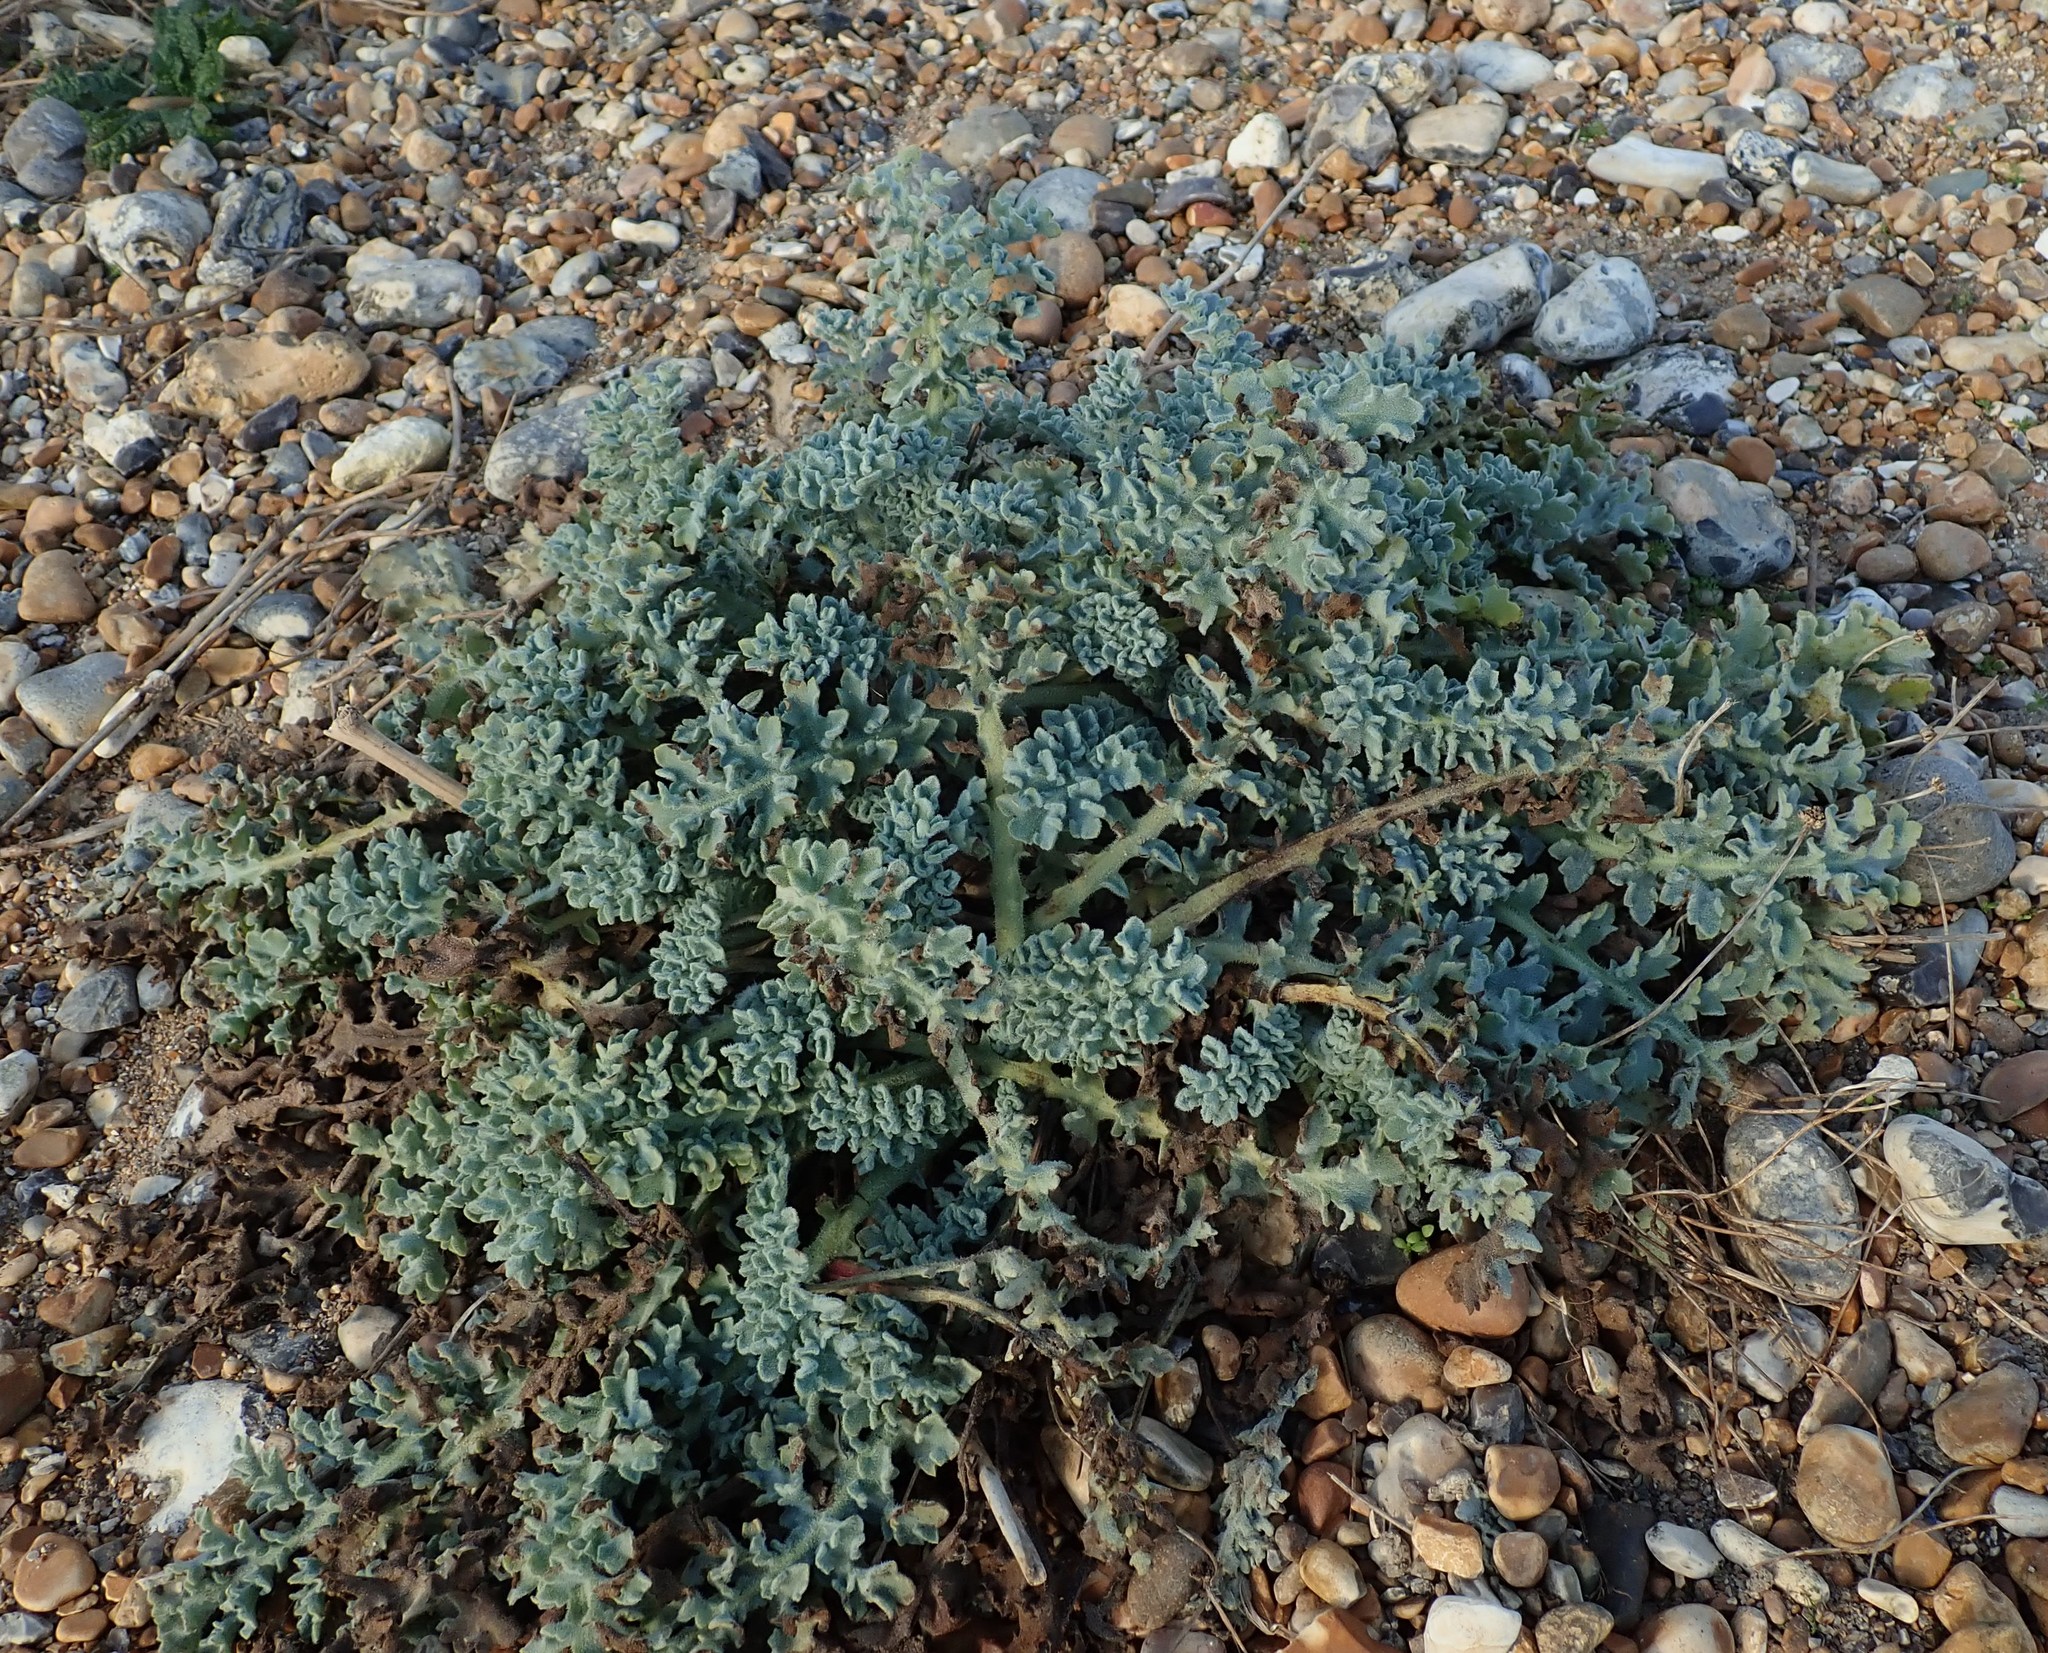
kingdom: Plantae
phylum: Tracheophyta
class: Magnoliopsida
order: Ranunculales
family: Papaveraceae
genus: Glaucium
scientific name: Glaucium flavum
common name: Yellow horned-poppy
